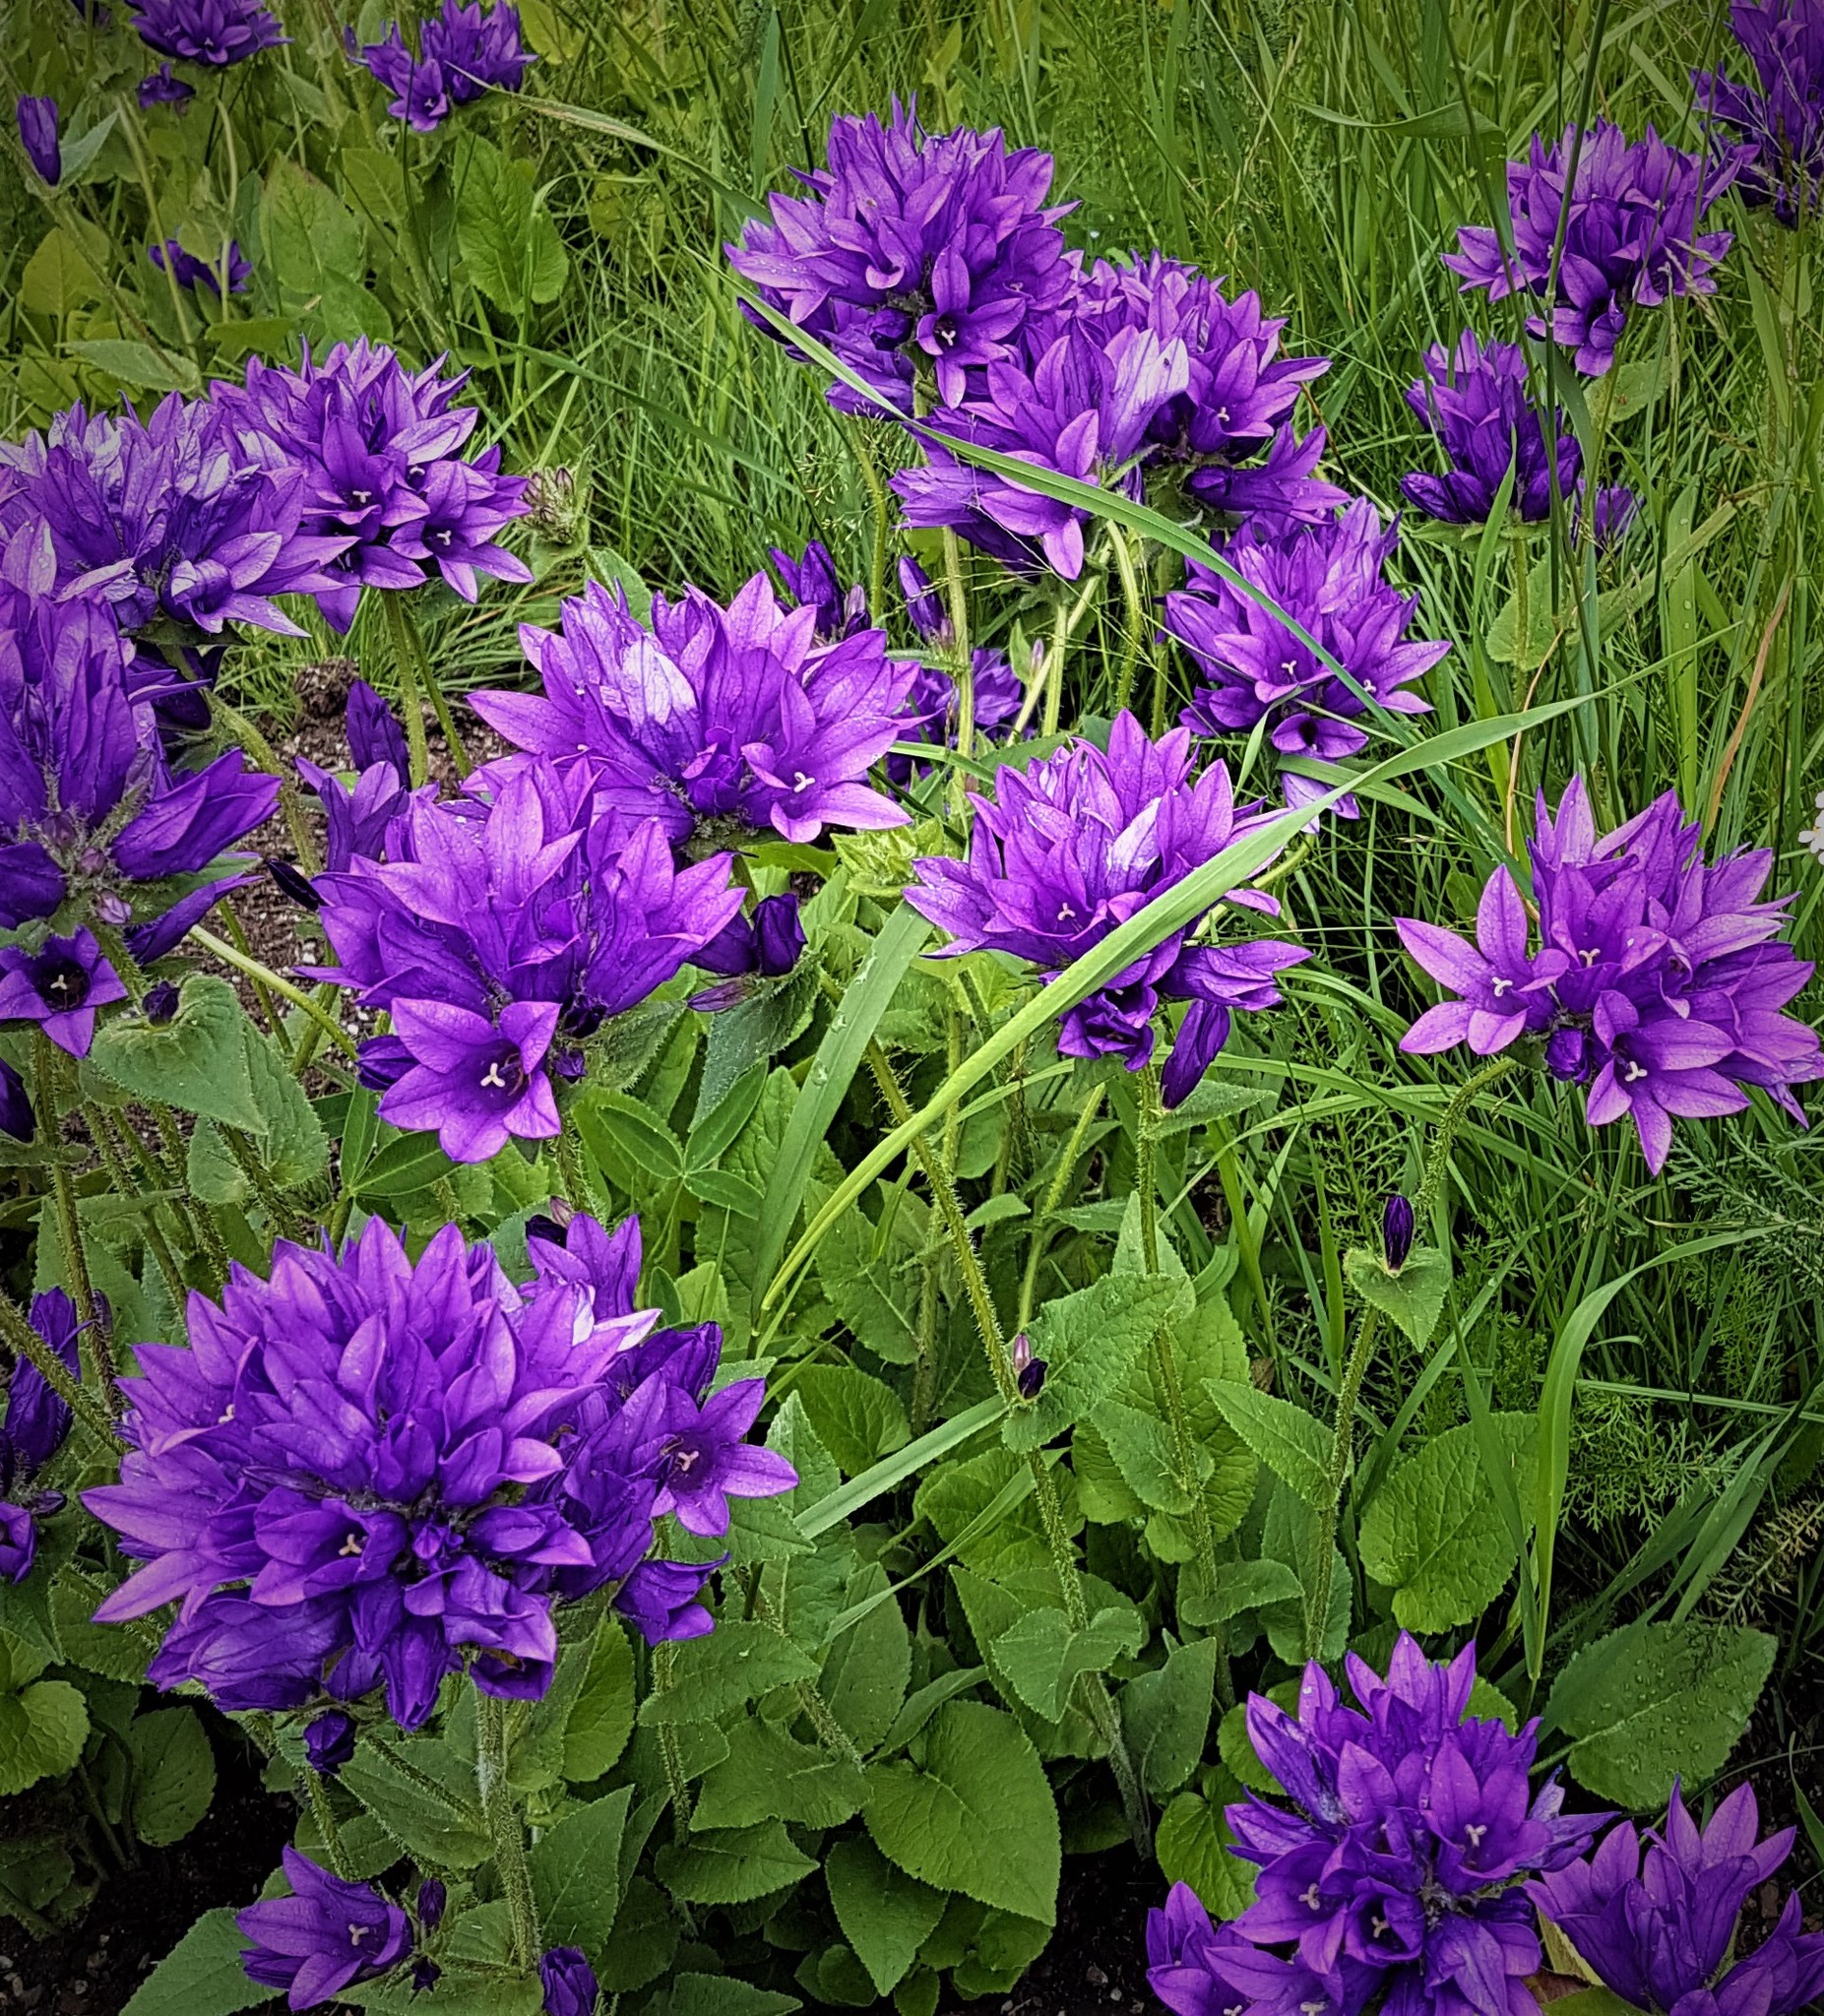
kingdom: Plantae
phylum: Tracheophyta
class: Magnoliopsida
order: Asterales
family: Campanulaceae
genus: Campanula
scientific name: Campanula glomerata
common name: Clustered bellflower
